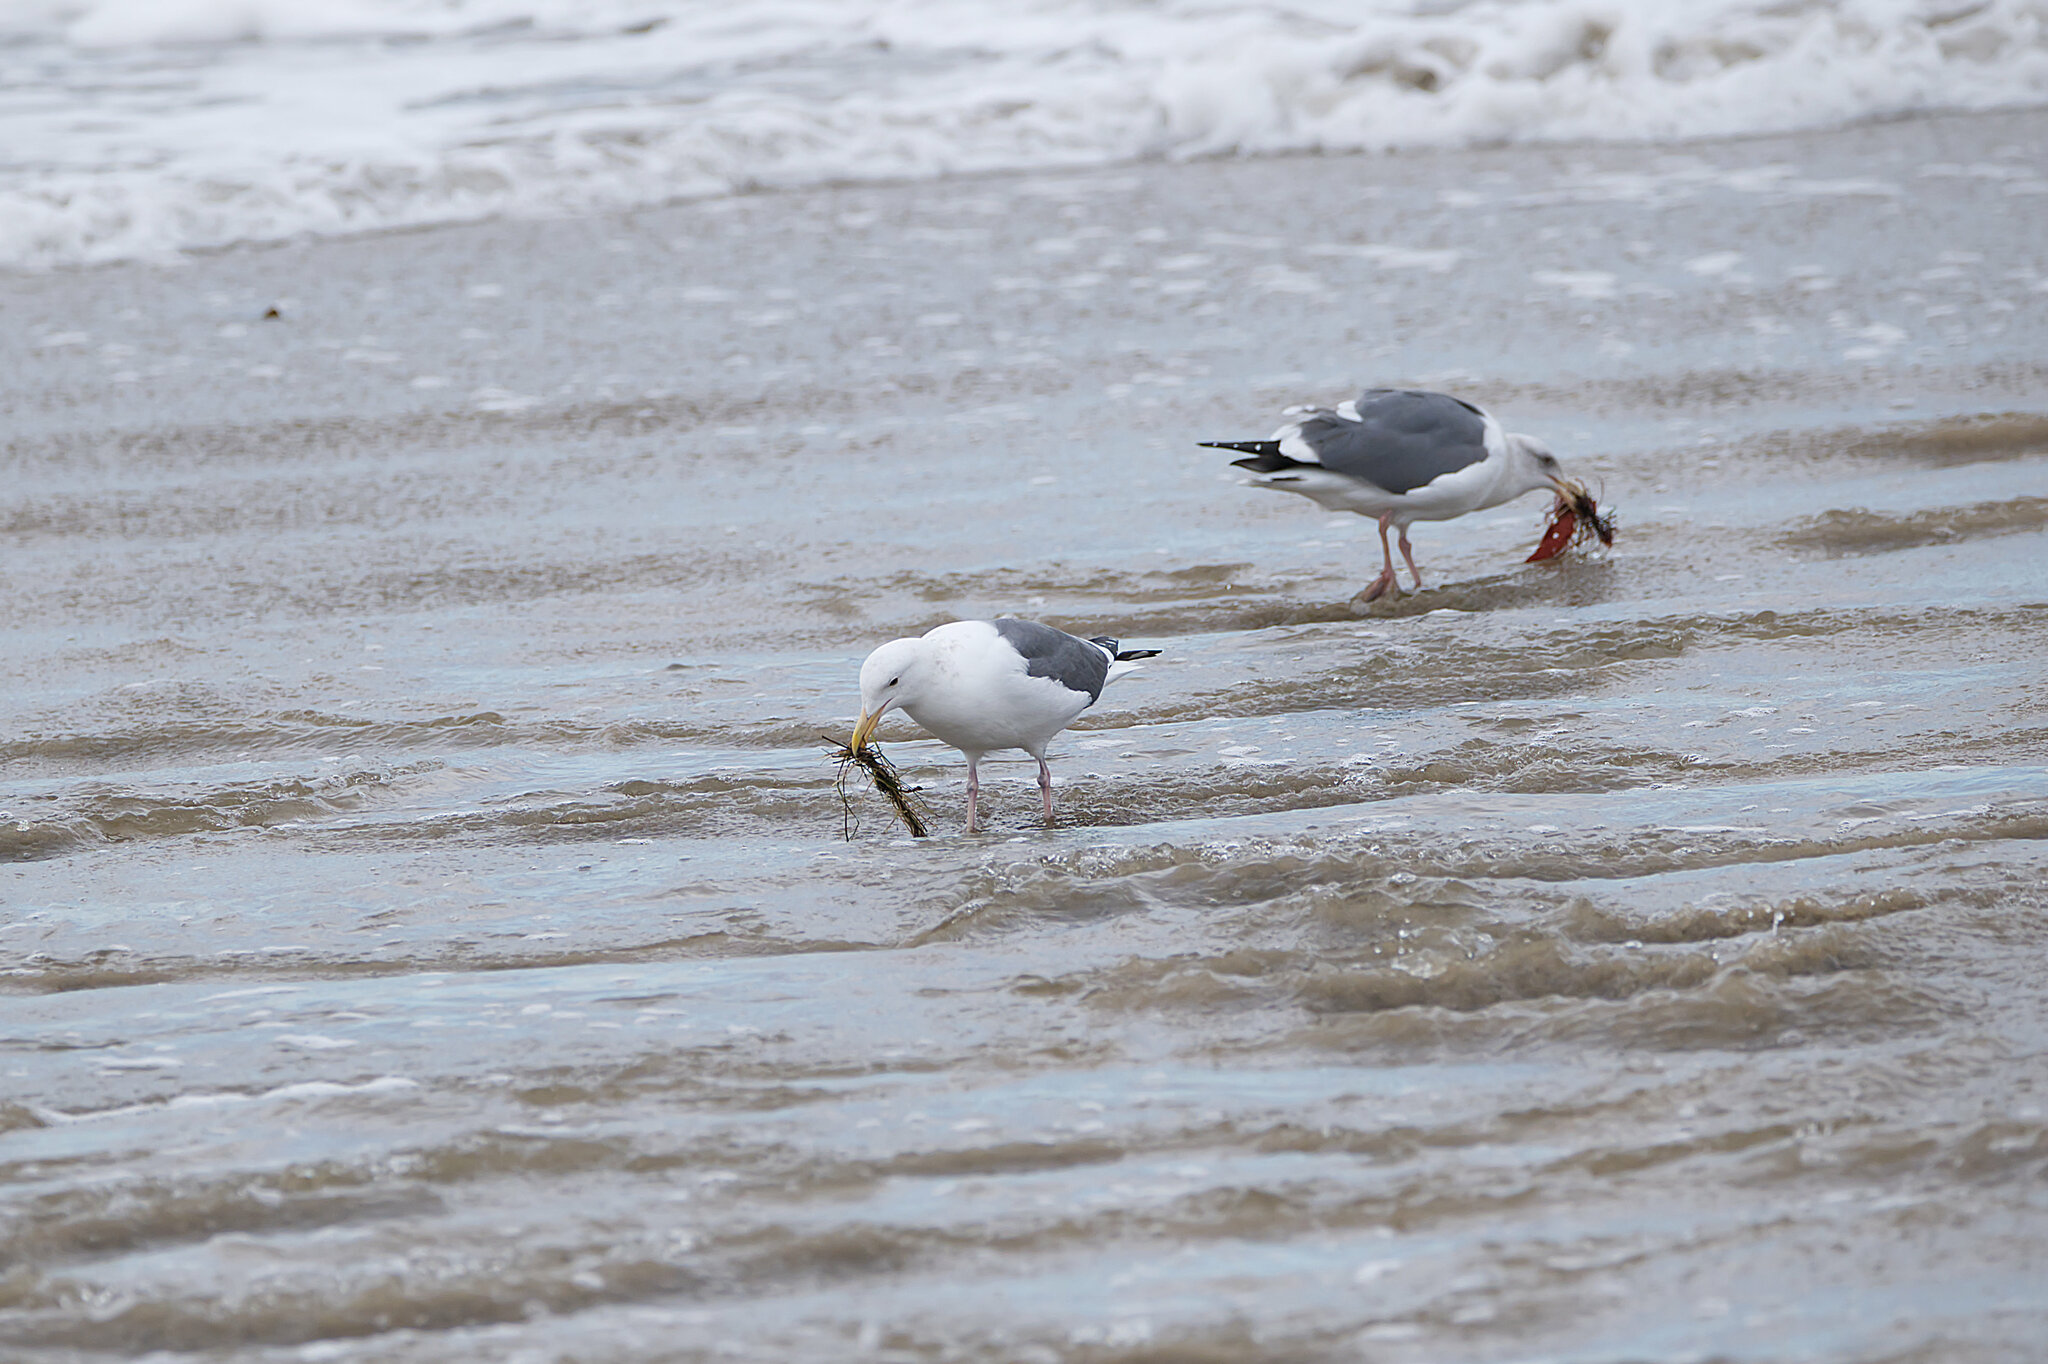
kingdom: Animalia
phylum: Chordata
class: Aves
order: Charadriiformes
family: Laridae
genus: Larus
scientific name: Larus occidentalis
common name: Western gull
